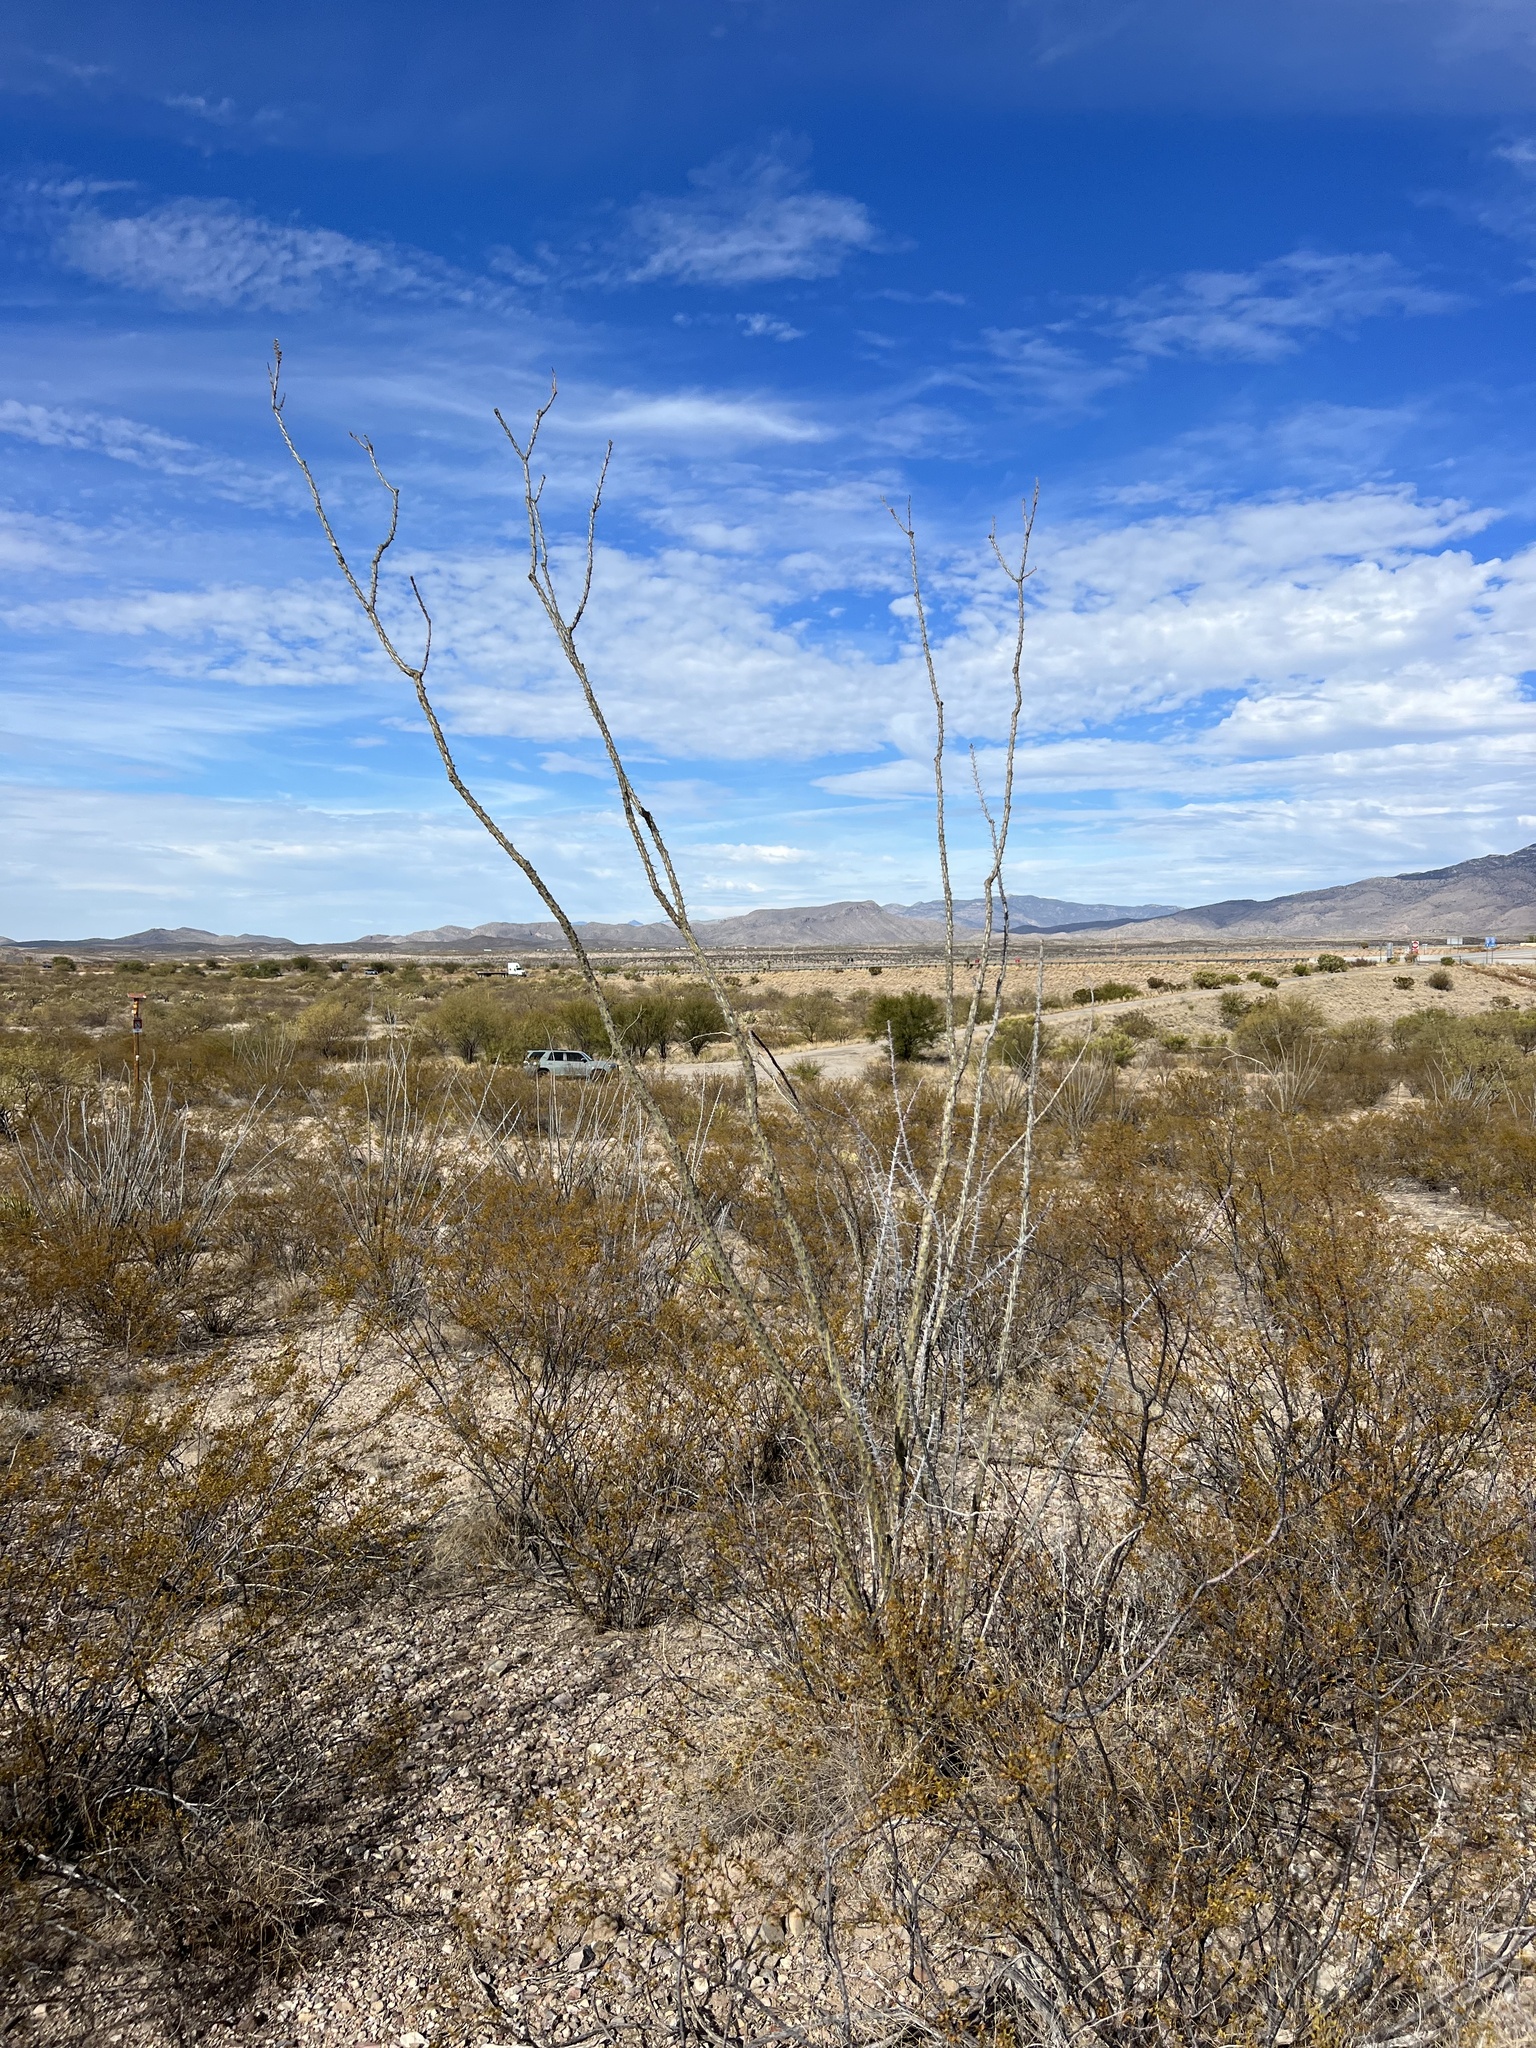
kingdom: Plantae
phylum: Tracheophyta
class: Magnoliopsida
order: Ericales
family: Fouquieriaceae
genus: Fouquieria
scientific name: Fouquieria splendens
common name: Vine-cactus
